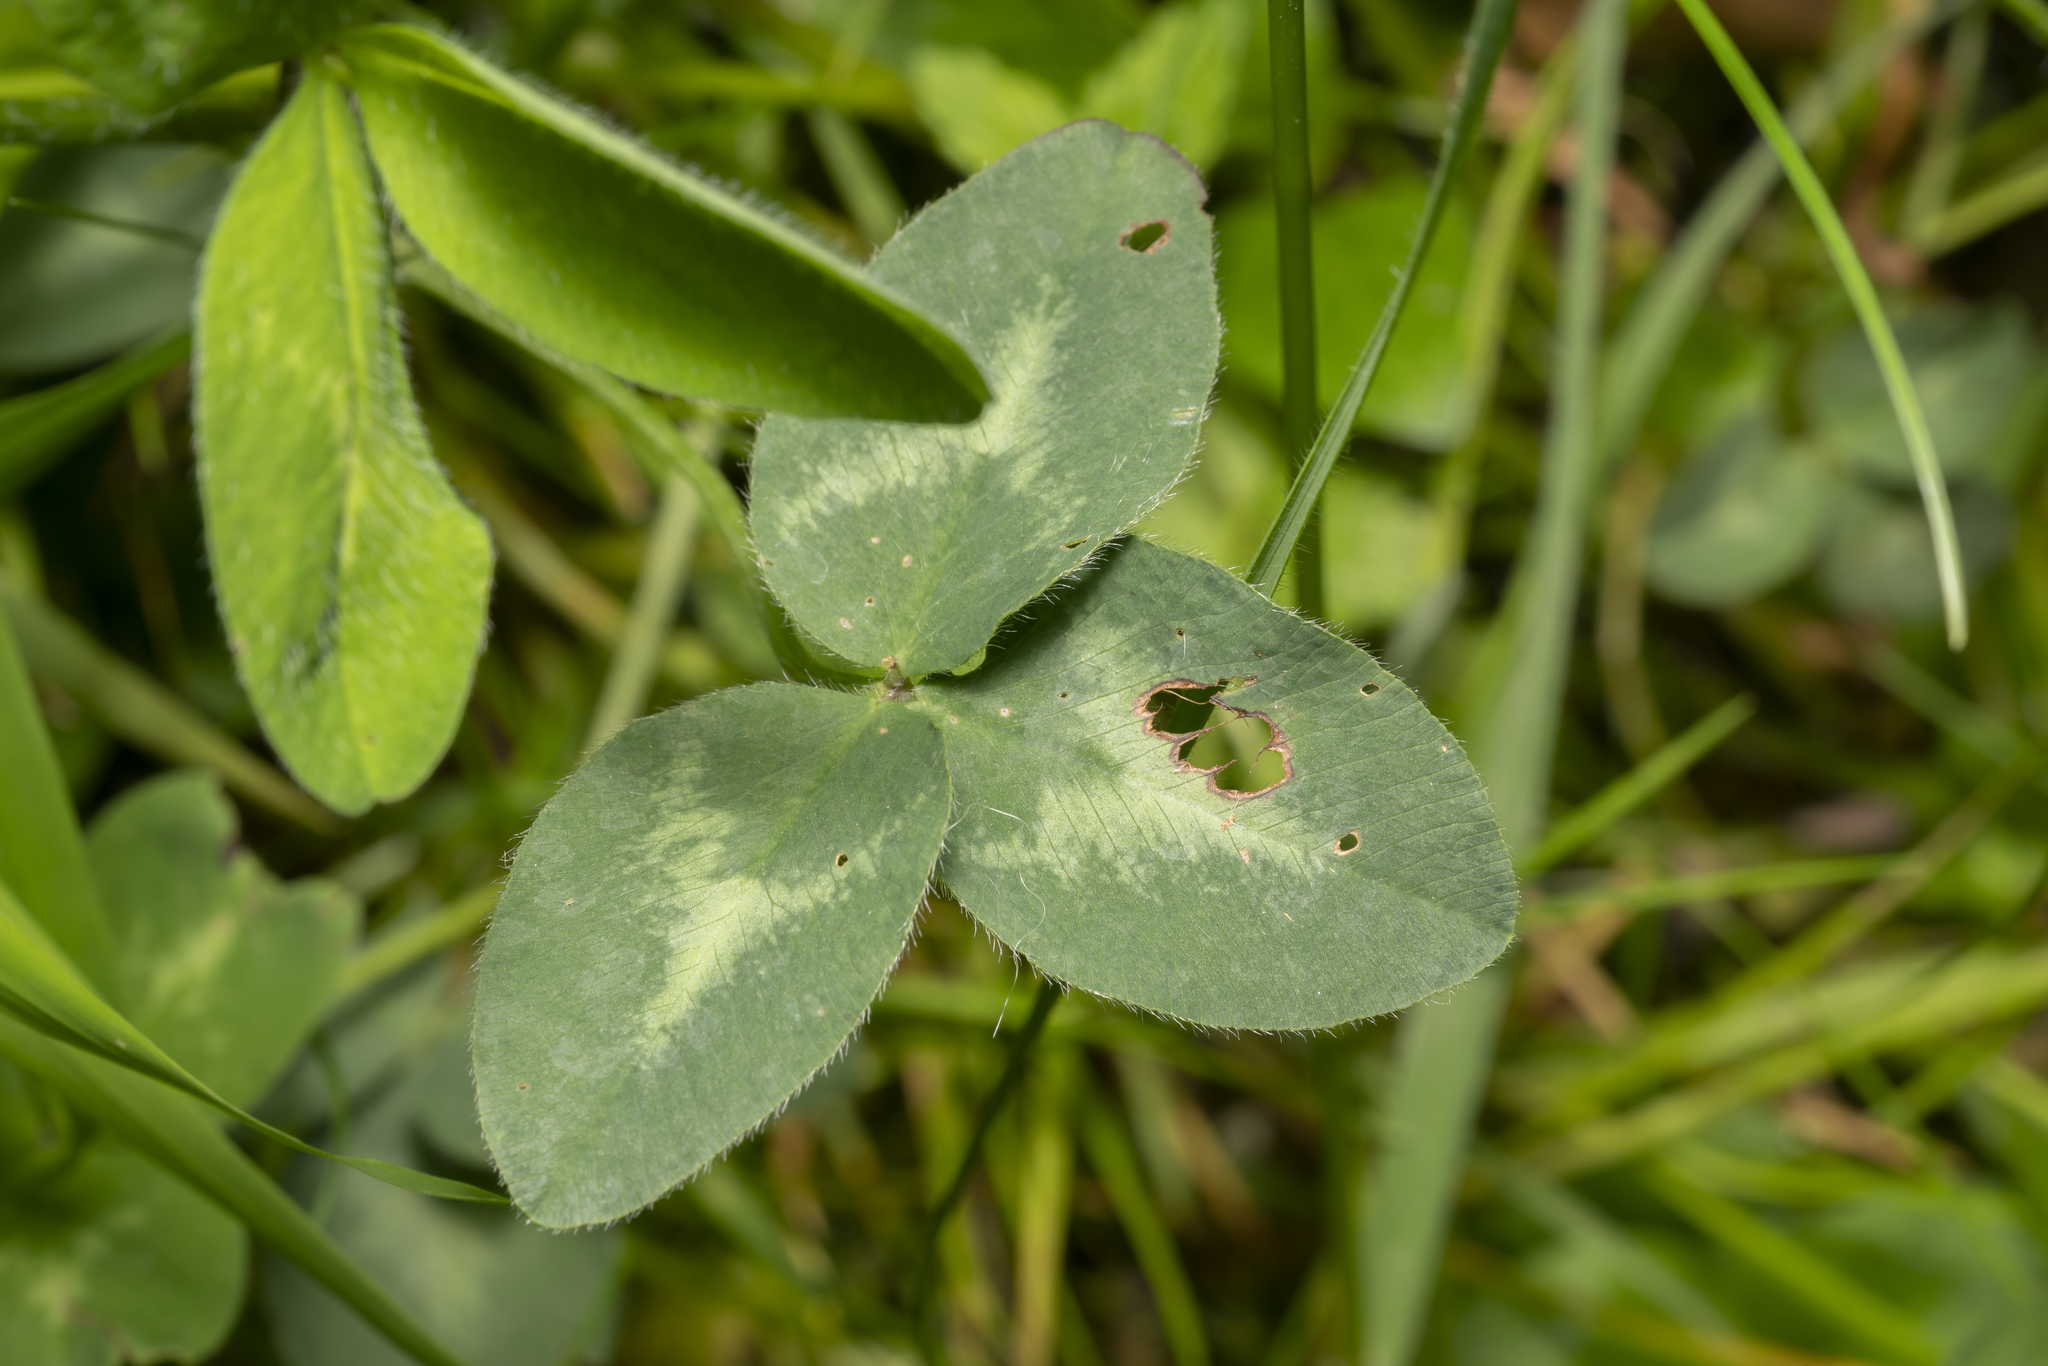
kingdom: Plantae
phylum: Tracheophyta
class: Magnoliopsida
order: Fabales
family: Fabaceae
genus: Trifolium
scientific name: Trifolium pratense
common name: Red clover
